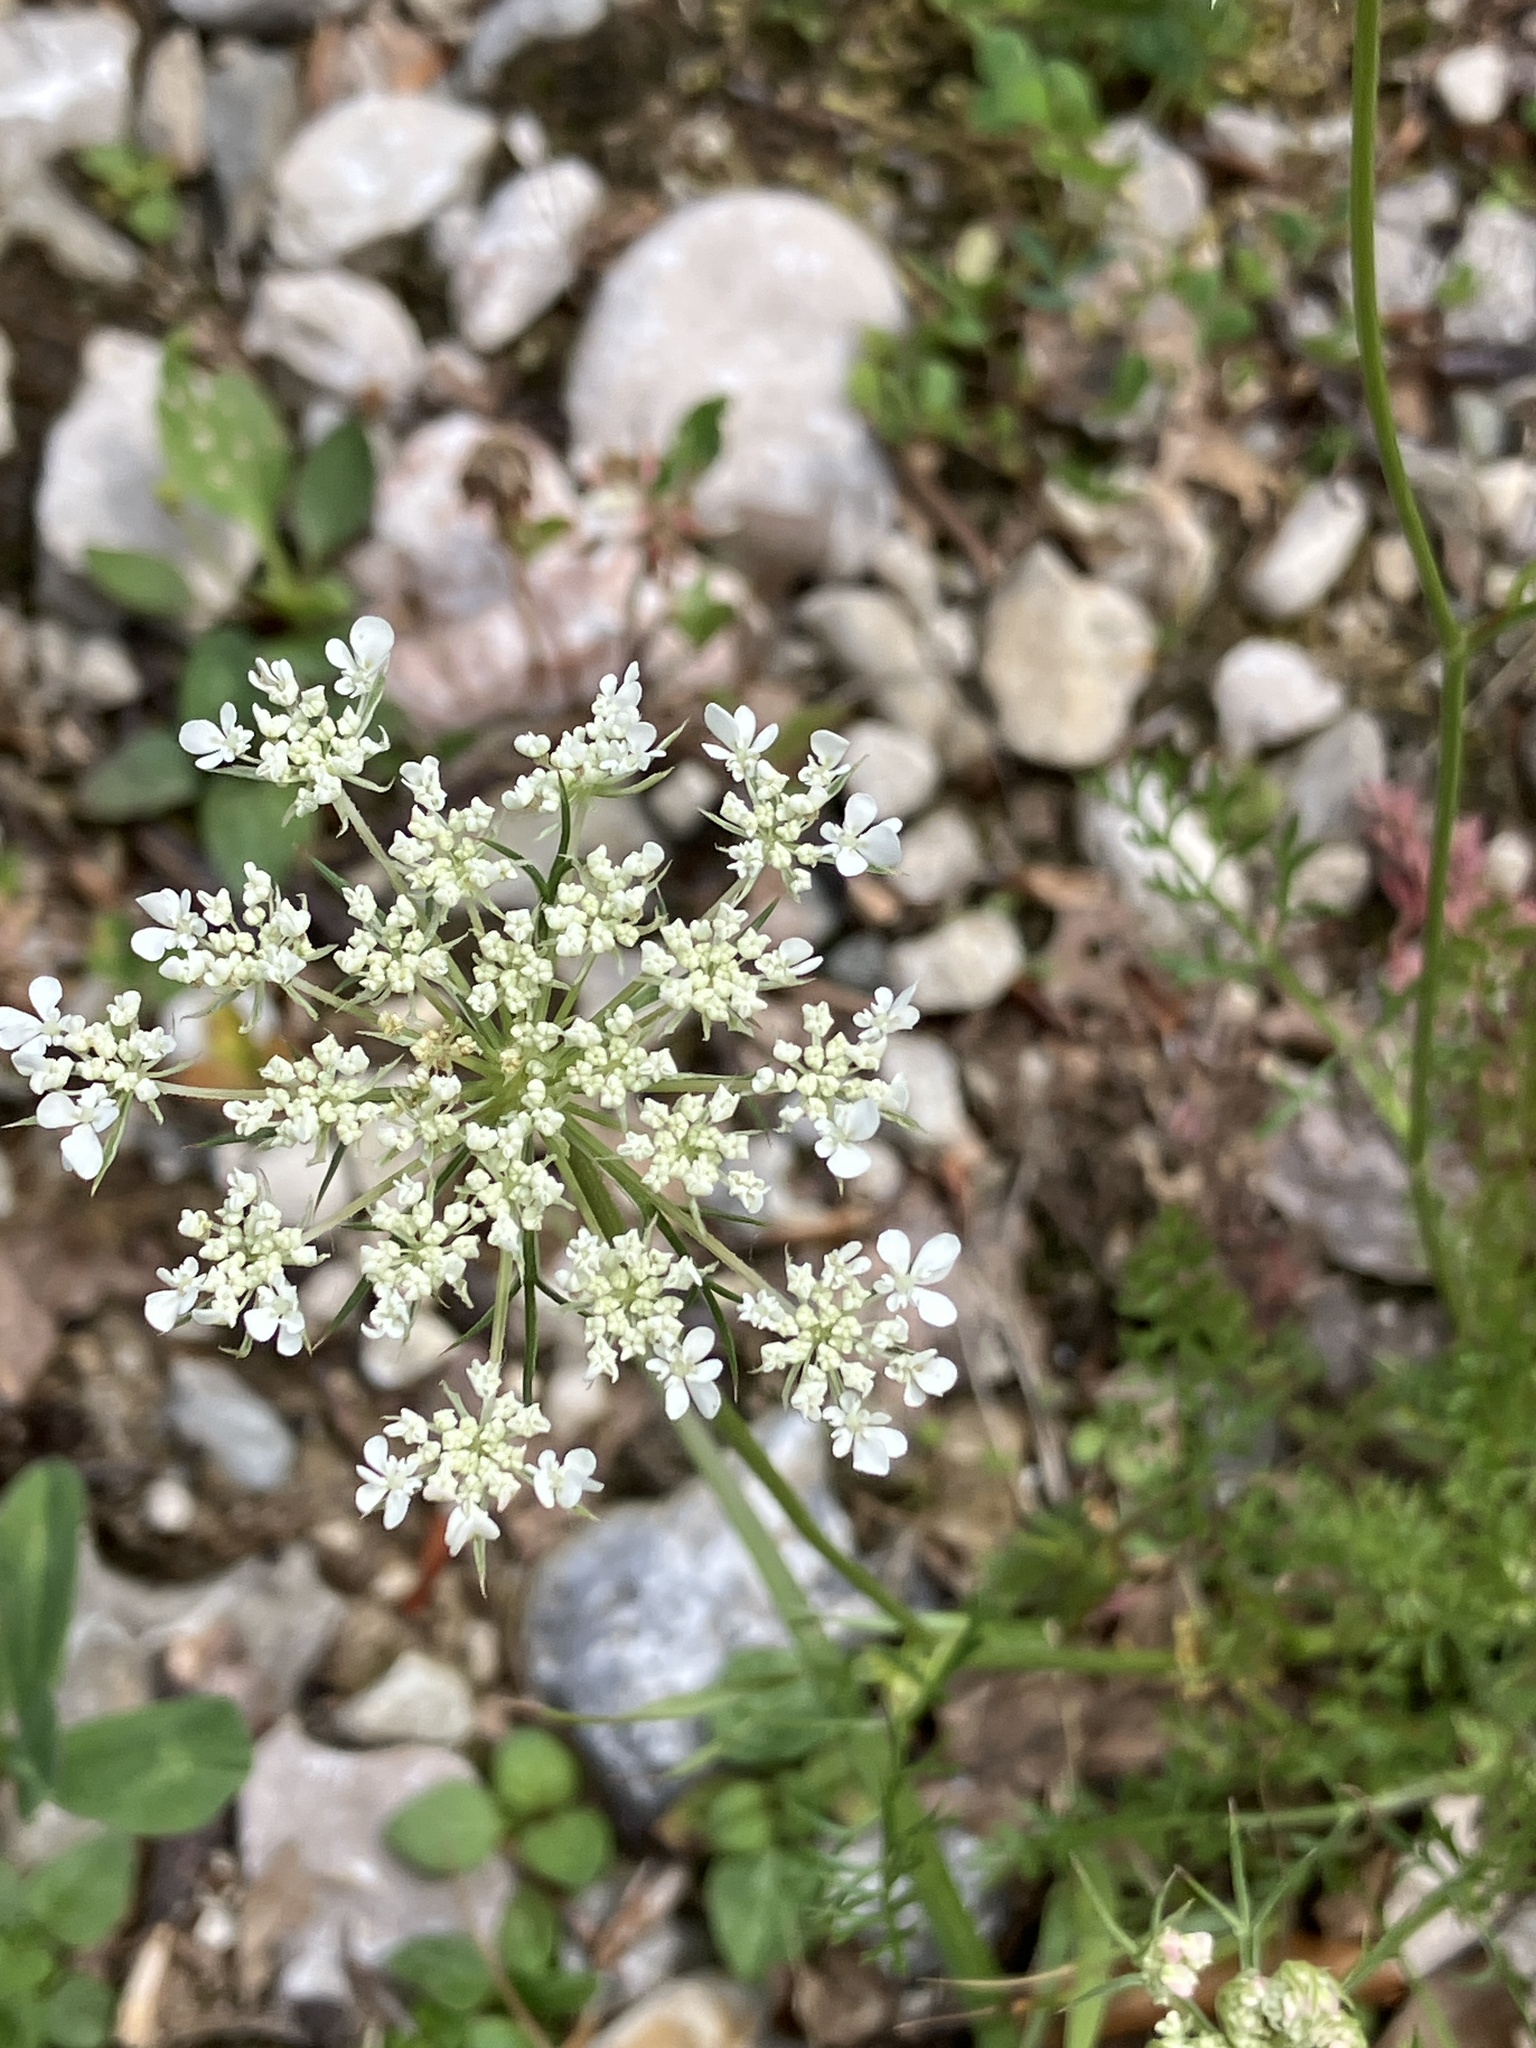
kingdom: Plantae
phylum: Tracheophyta
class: Magnoliopsida
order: Apiales
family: Apiaceae
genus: Daucus
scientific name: Daucus carota
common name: Wild carrot
